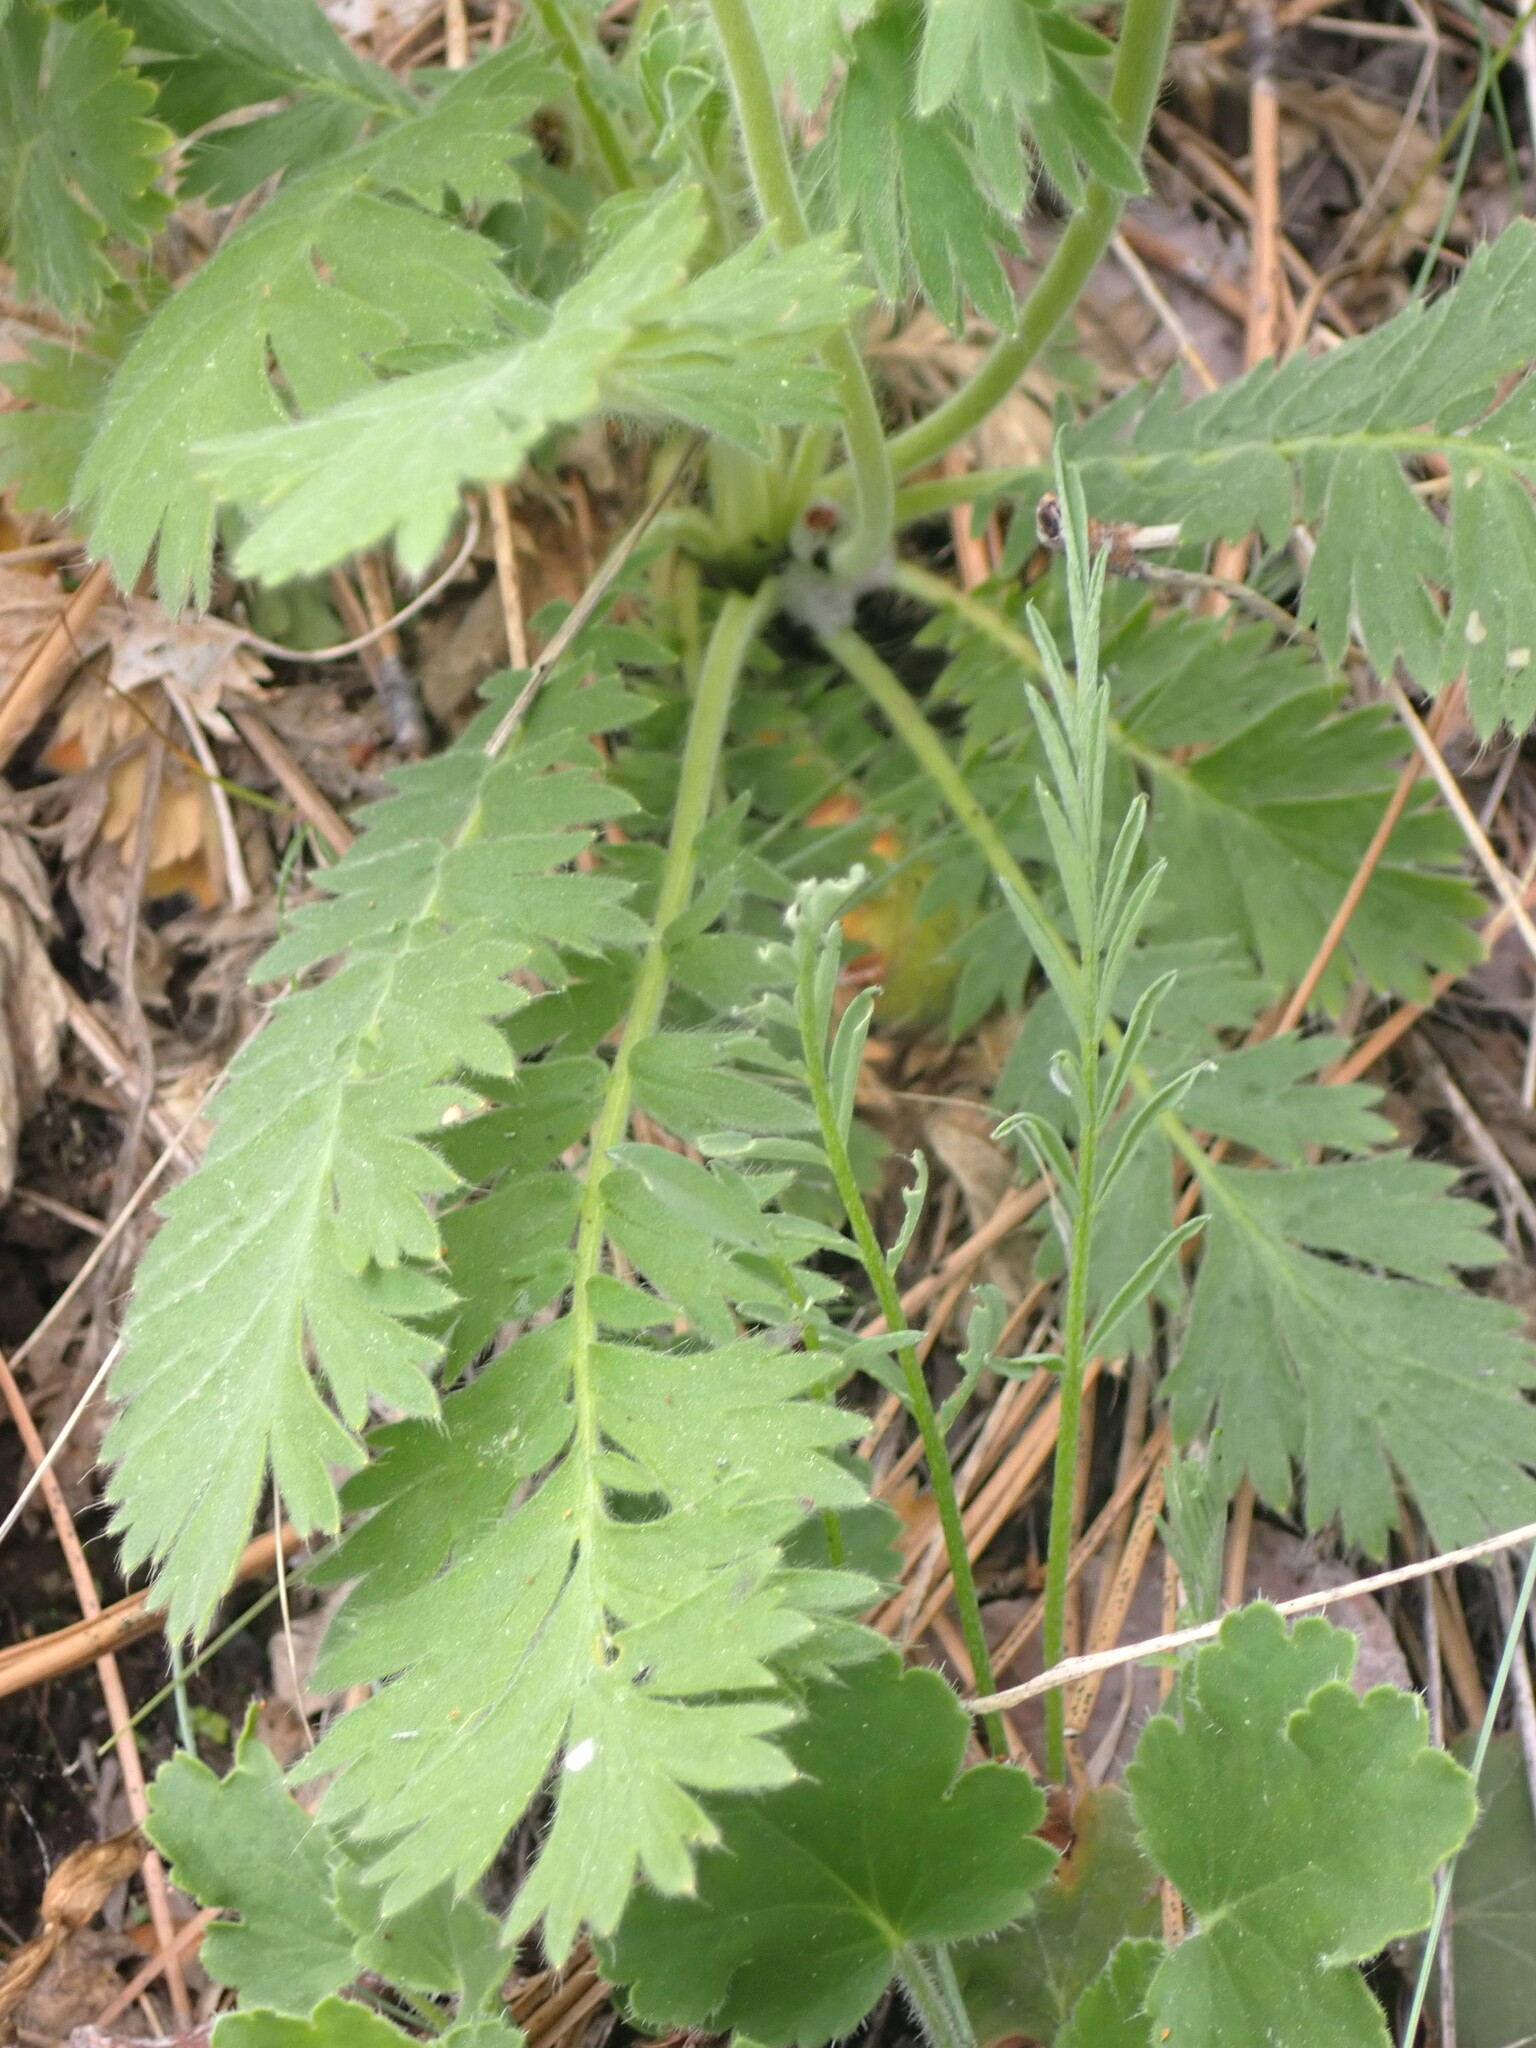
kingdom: Plantae
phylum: Tracheophyta
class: Magnoliopsida
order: Rosales
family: Rosaceae
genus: Geum
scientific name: Geum triflorum
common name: Old man's whiskers
